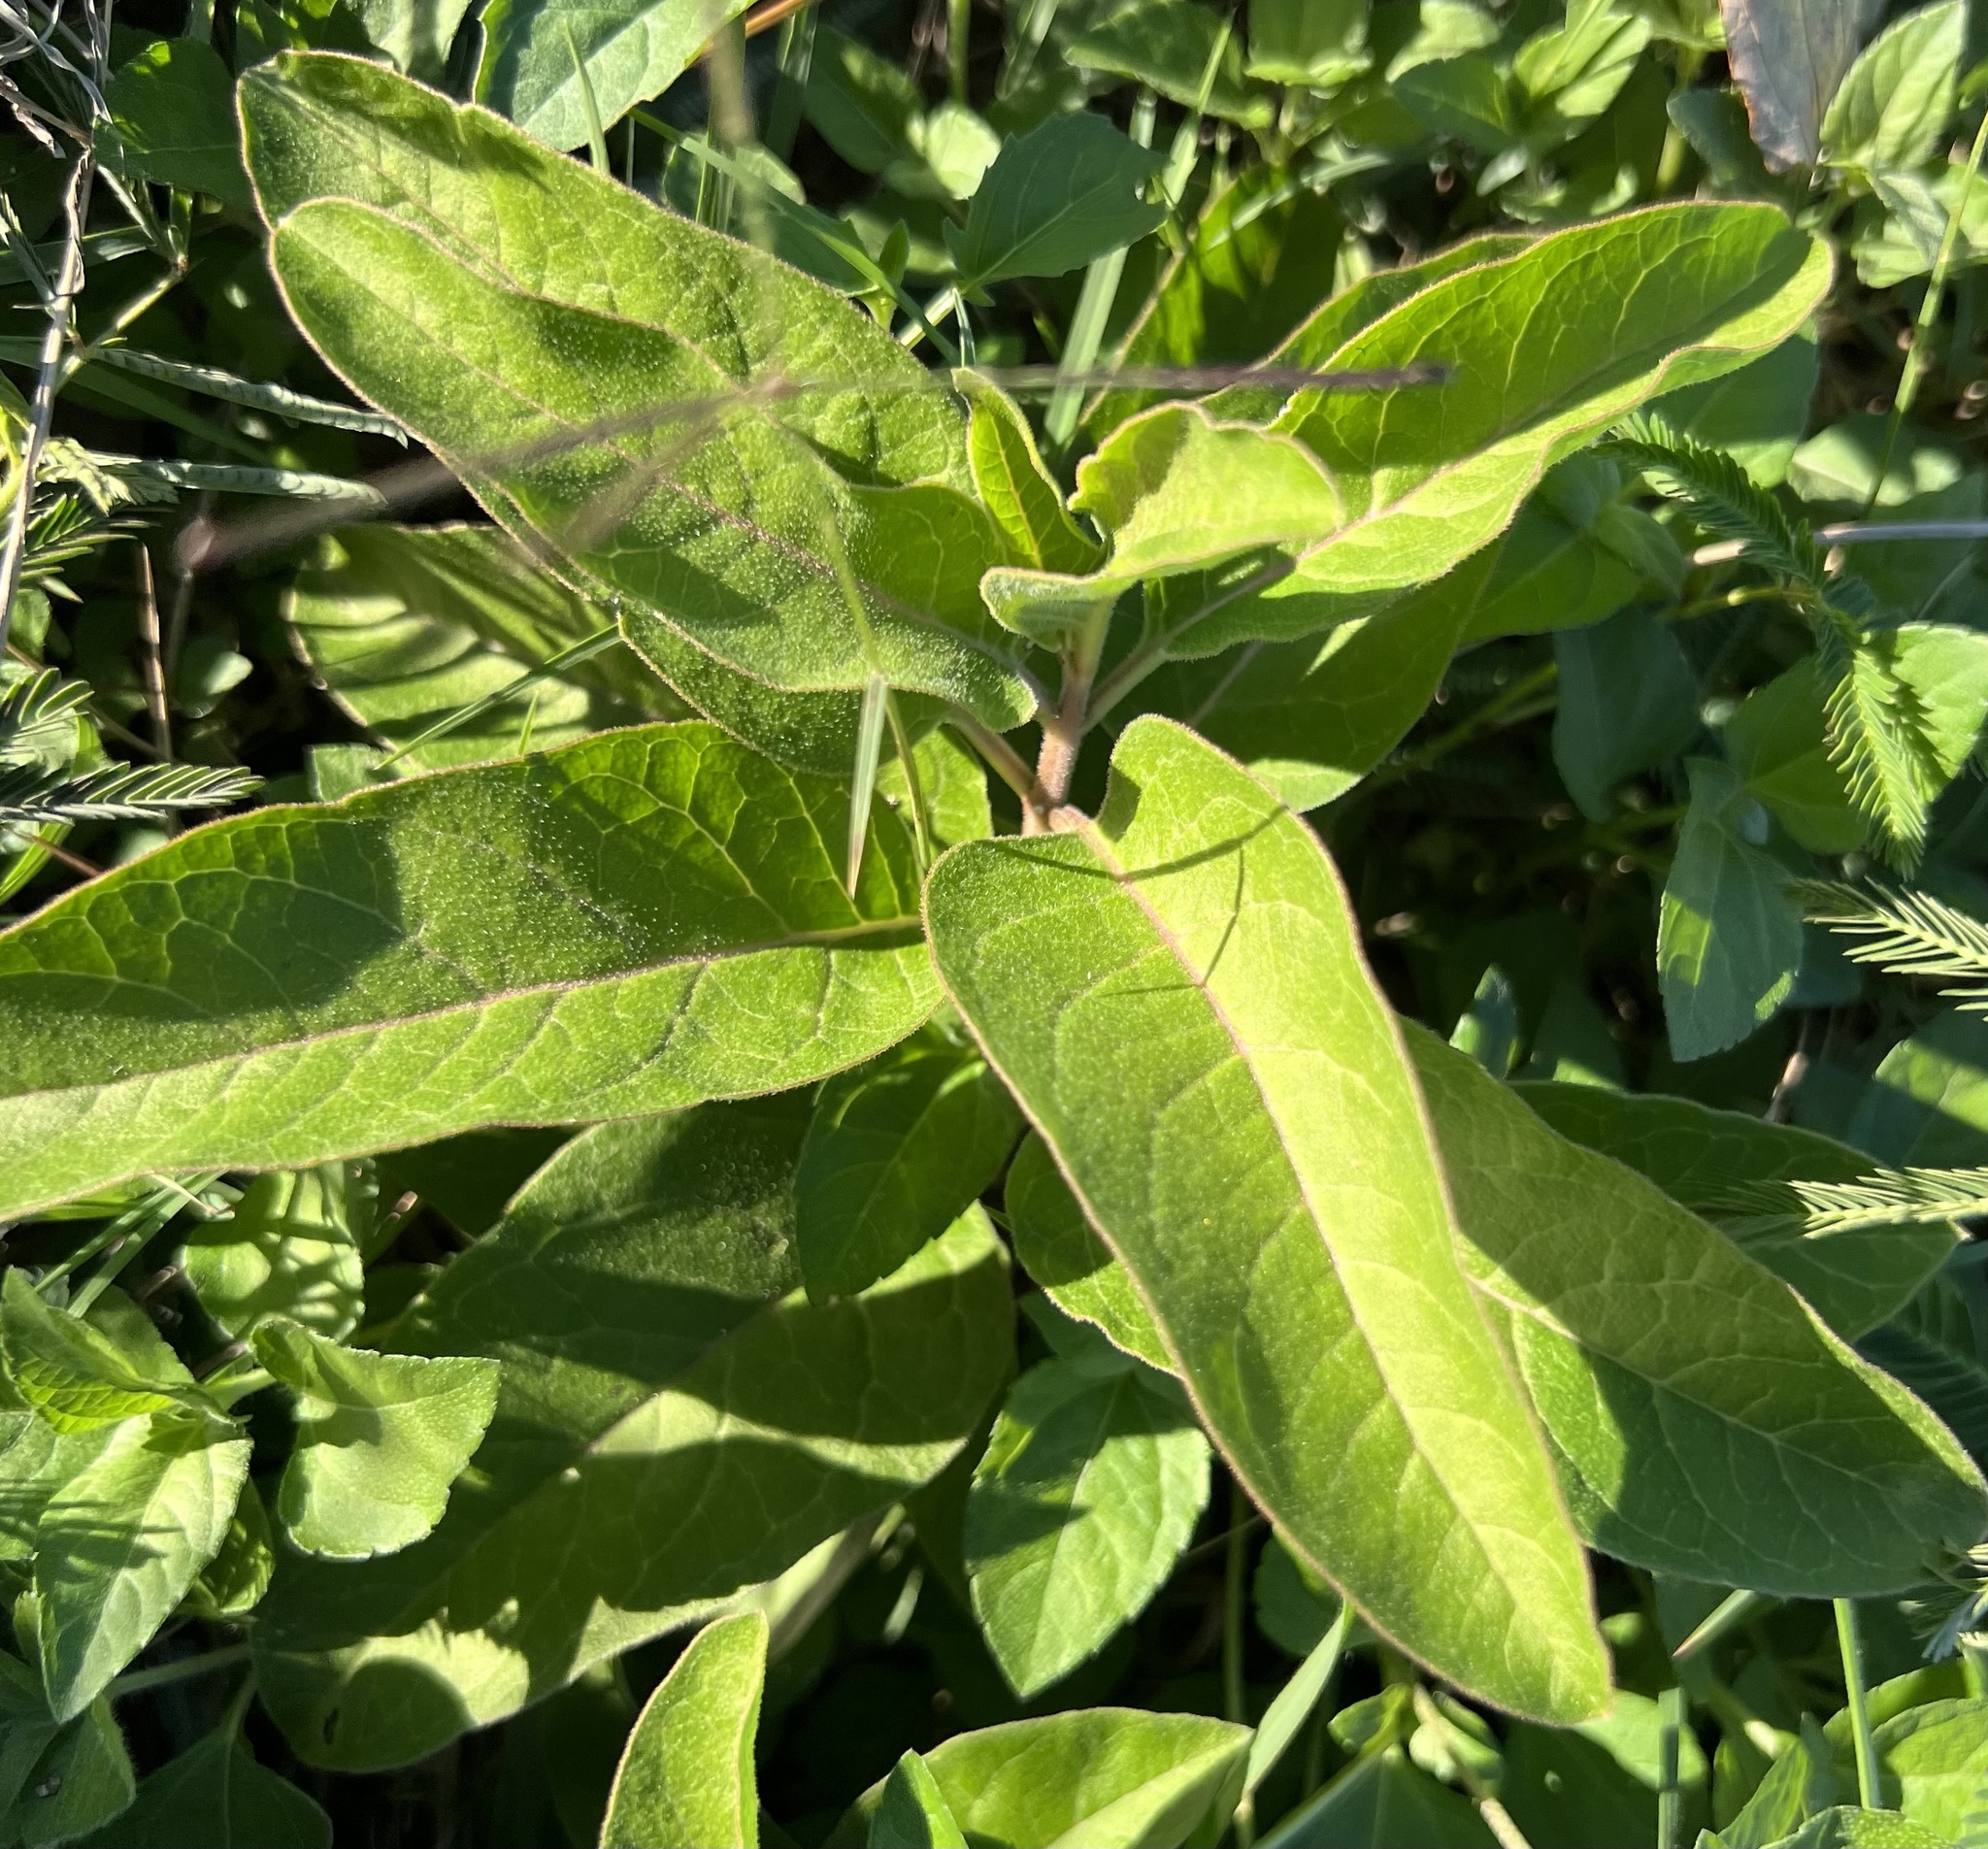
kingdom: Plantae
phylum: Tracheophyta
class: Magnoliopsida
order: Gentianales
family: Apocynaceae
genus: Asclepias
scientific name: Asclepias oenotheroides
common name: Zizotes milkweed
